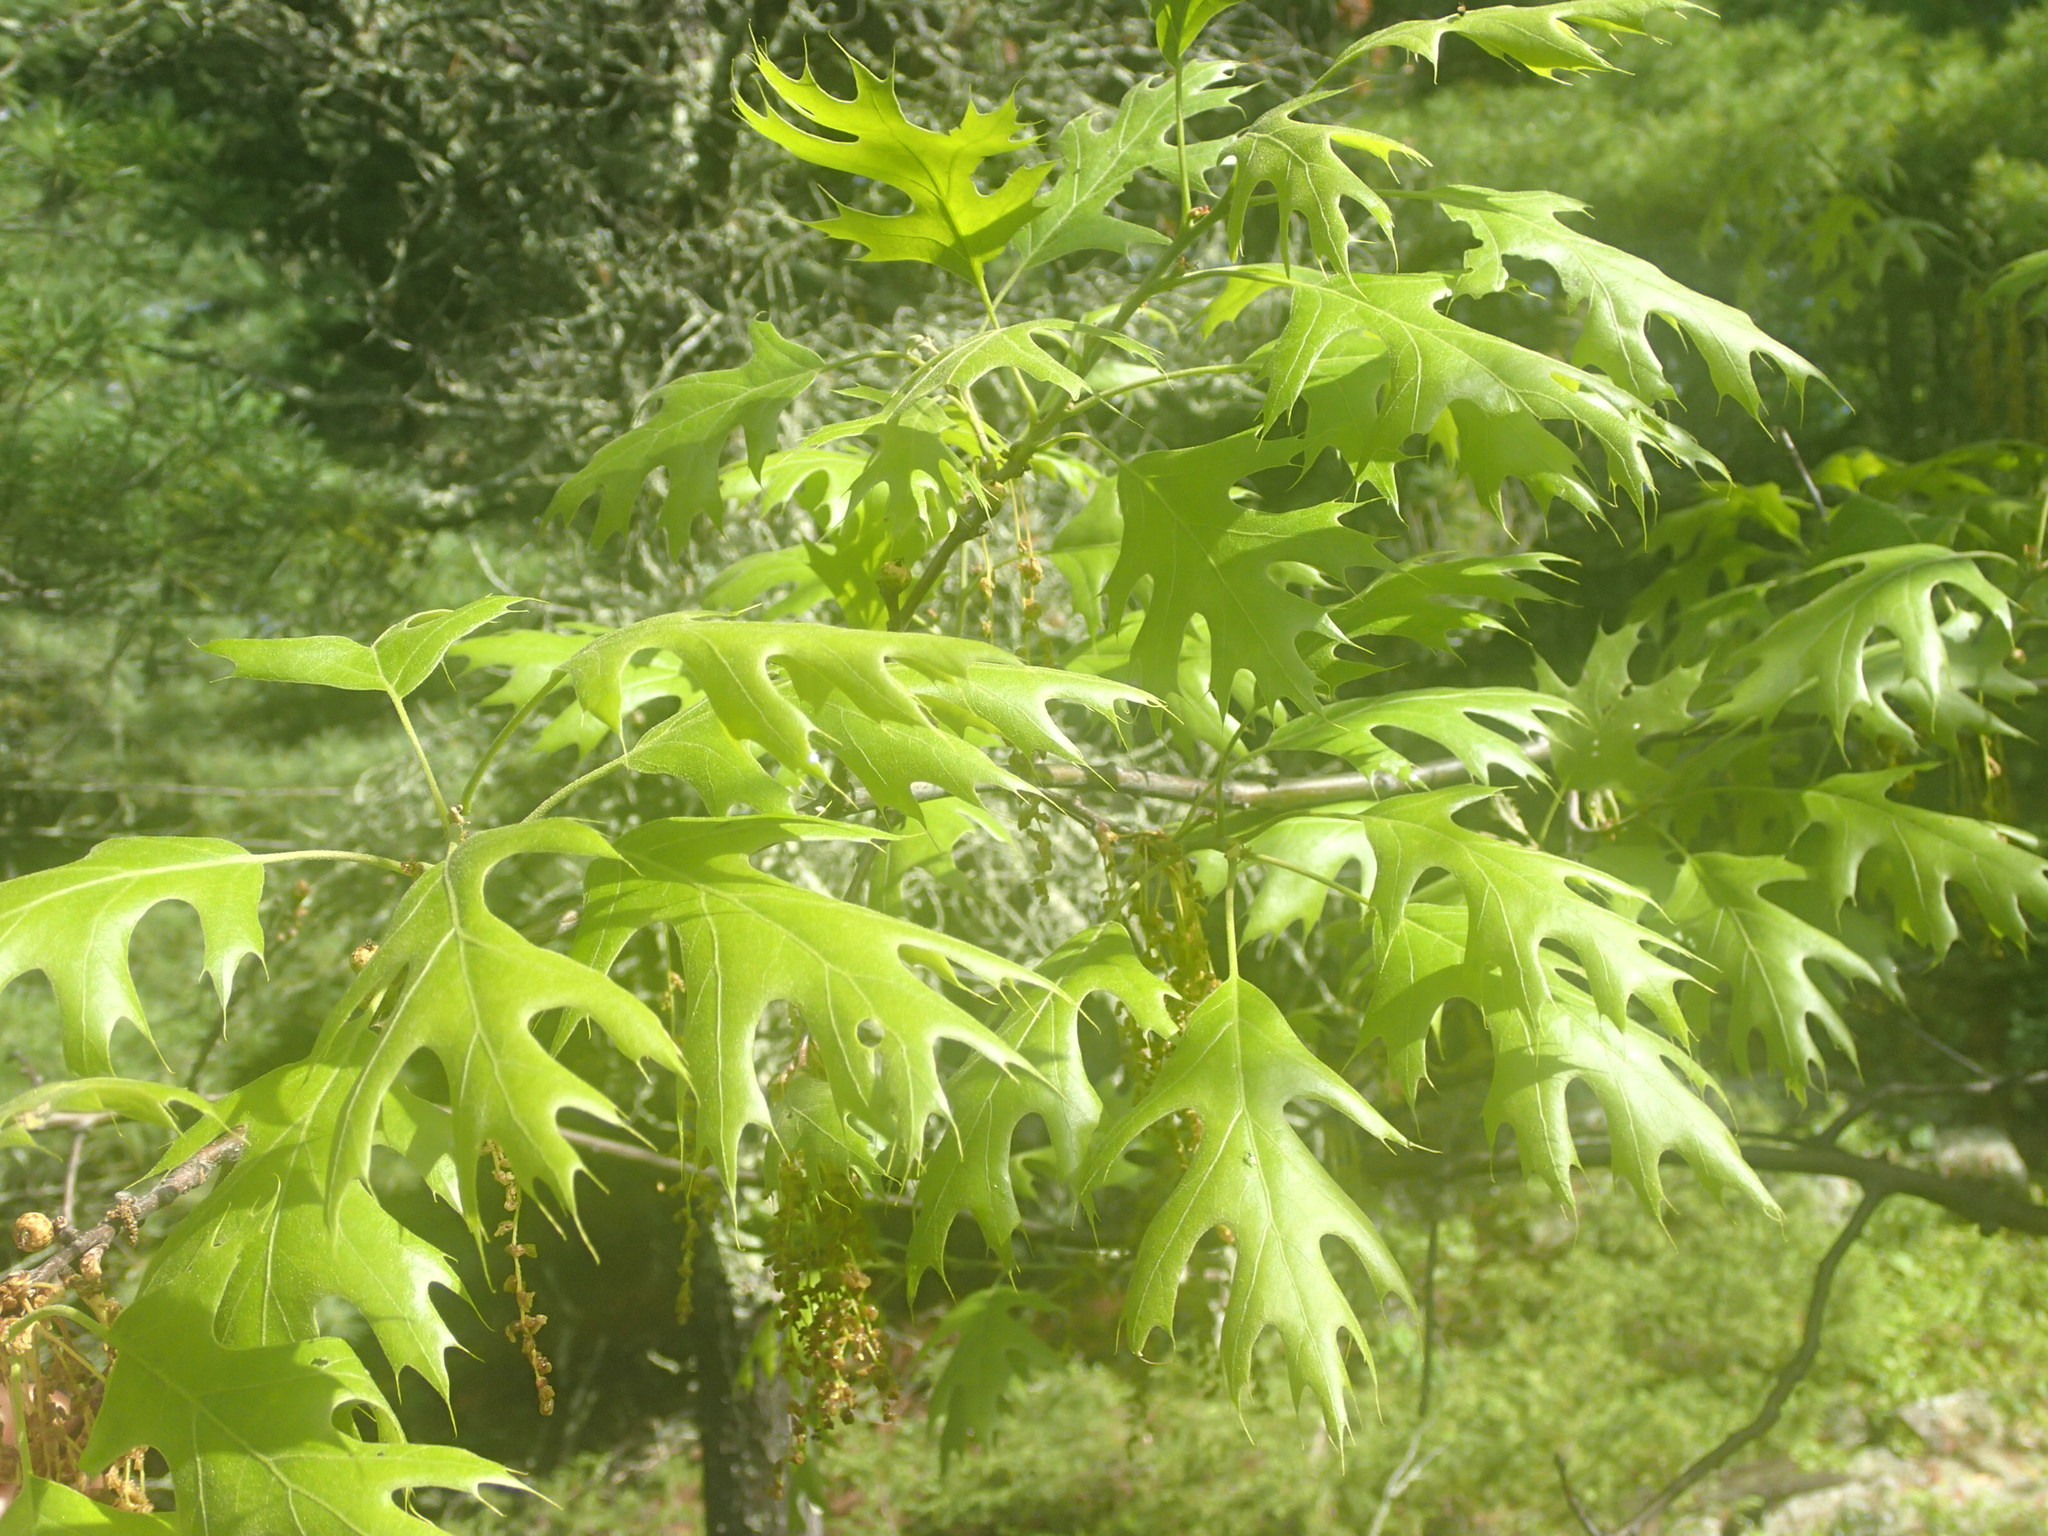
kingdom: Plantae
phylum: Tracheophyta
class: Magnoliopsida
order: Fagales
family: Fagaceae
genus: Quercus
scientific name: Quercus ellipsoidalis
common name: Hill's oak
